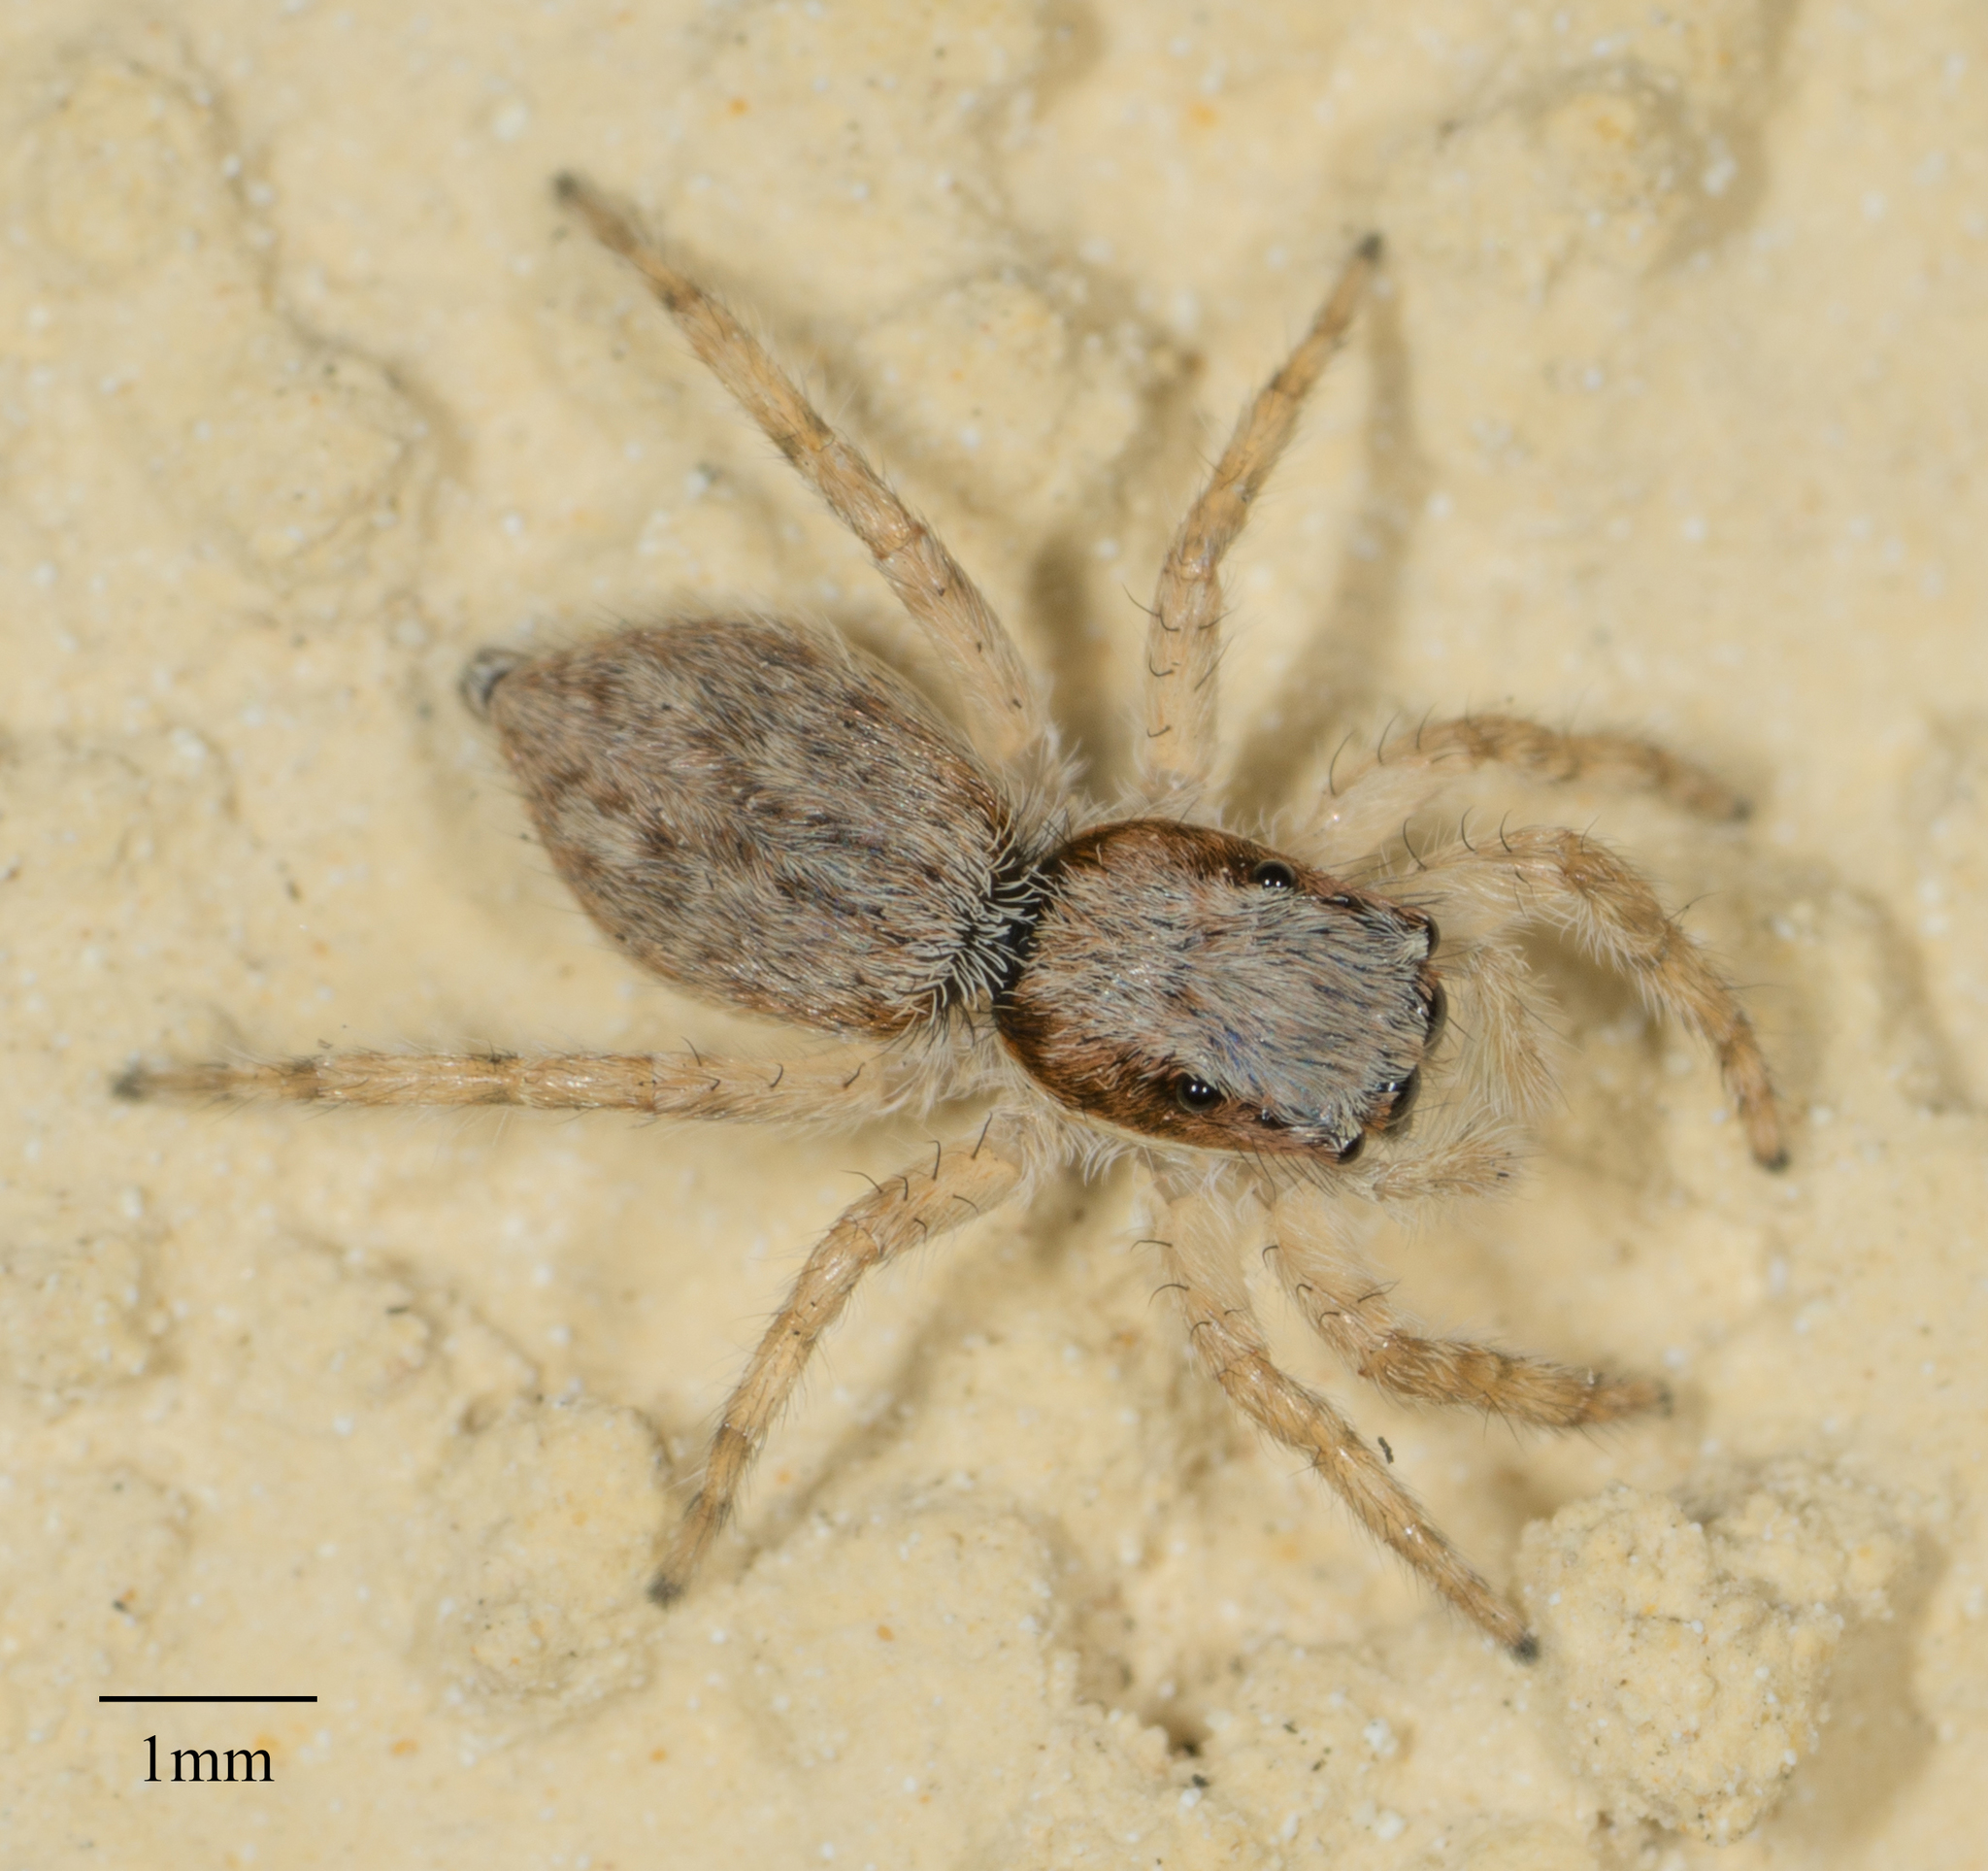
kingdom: Animalia
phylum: Arthropoda
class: Arachnida
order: Araneae
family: Salticidae
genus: Menemerus
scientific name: Menemerus bivittatus
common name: Gray wall jumper
